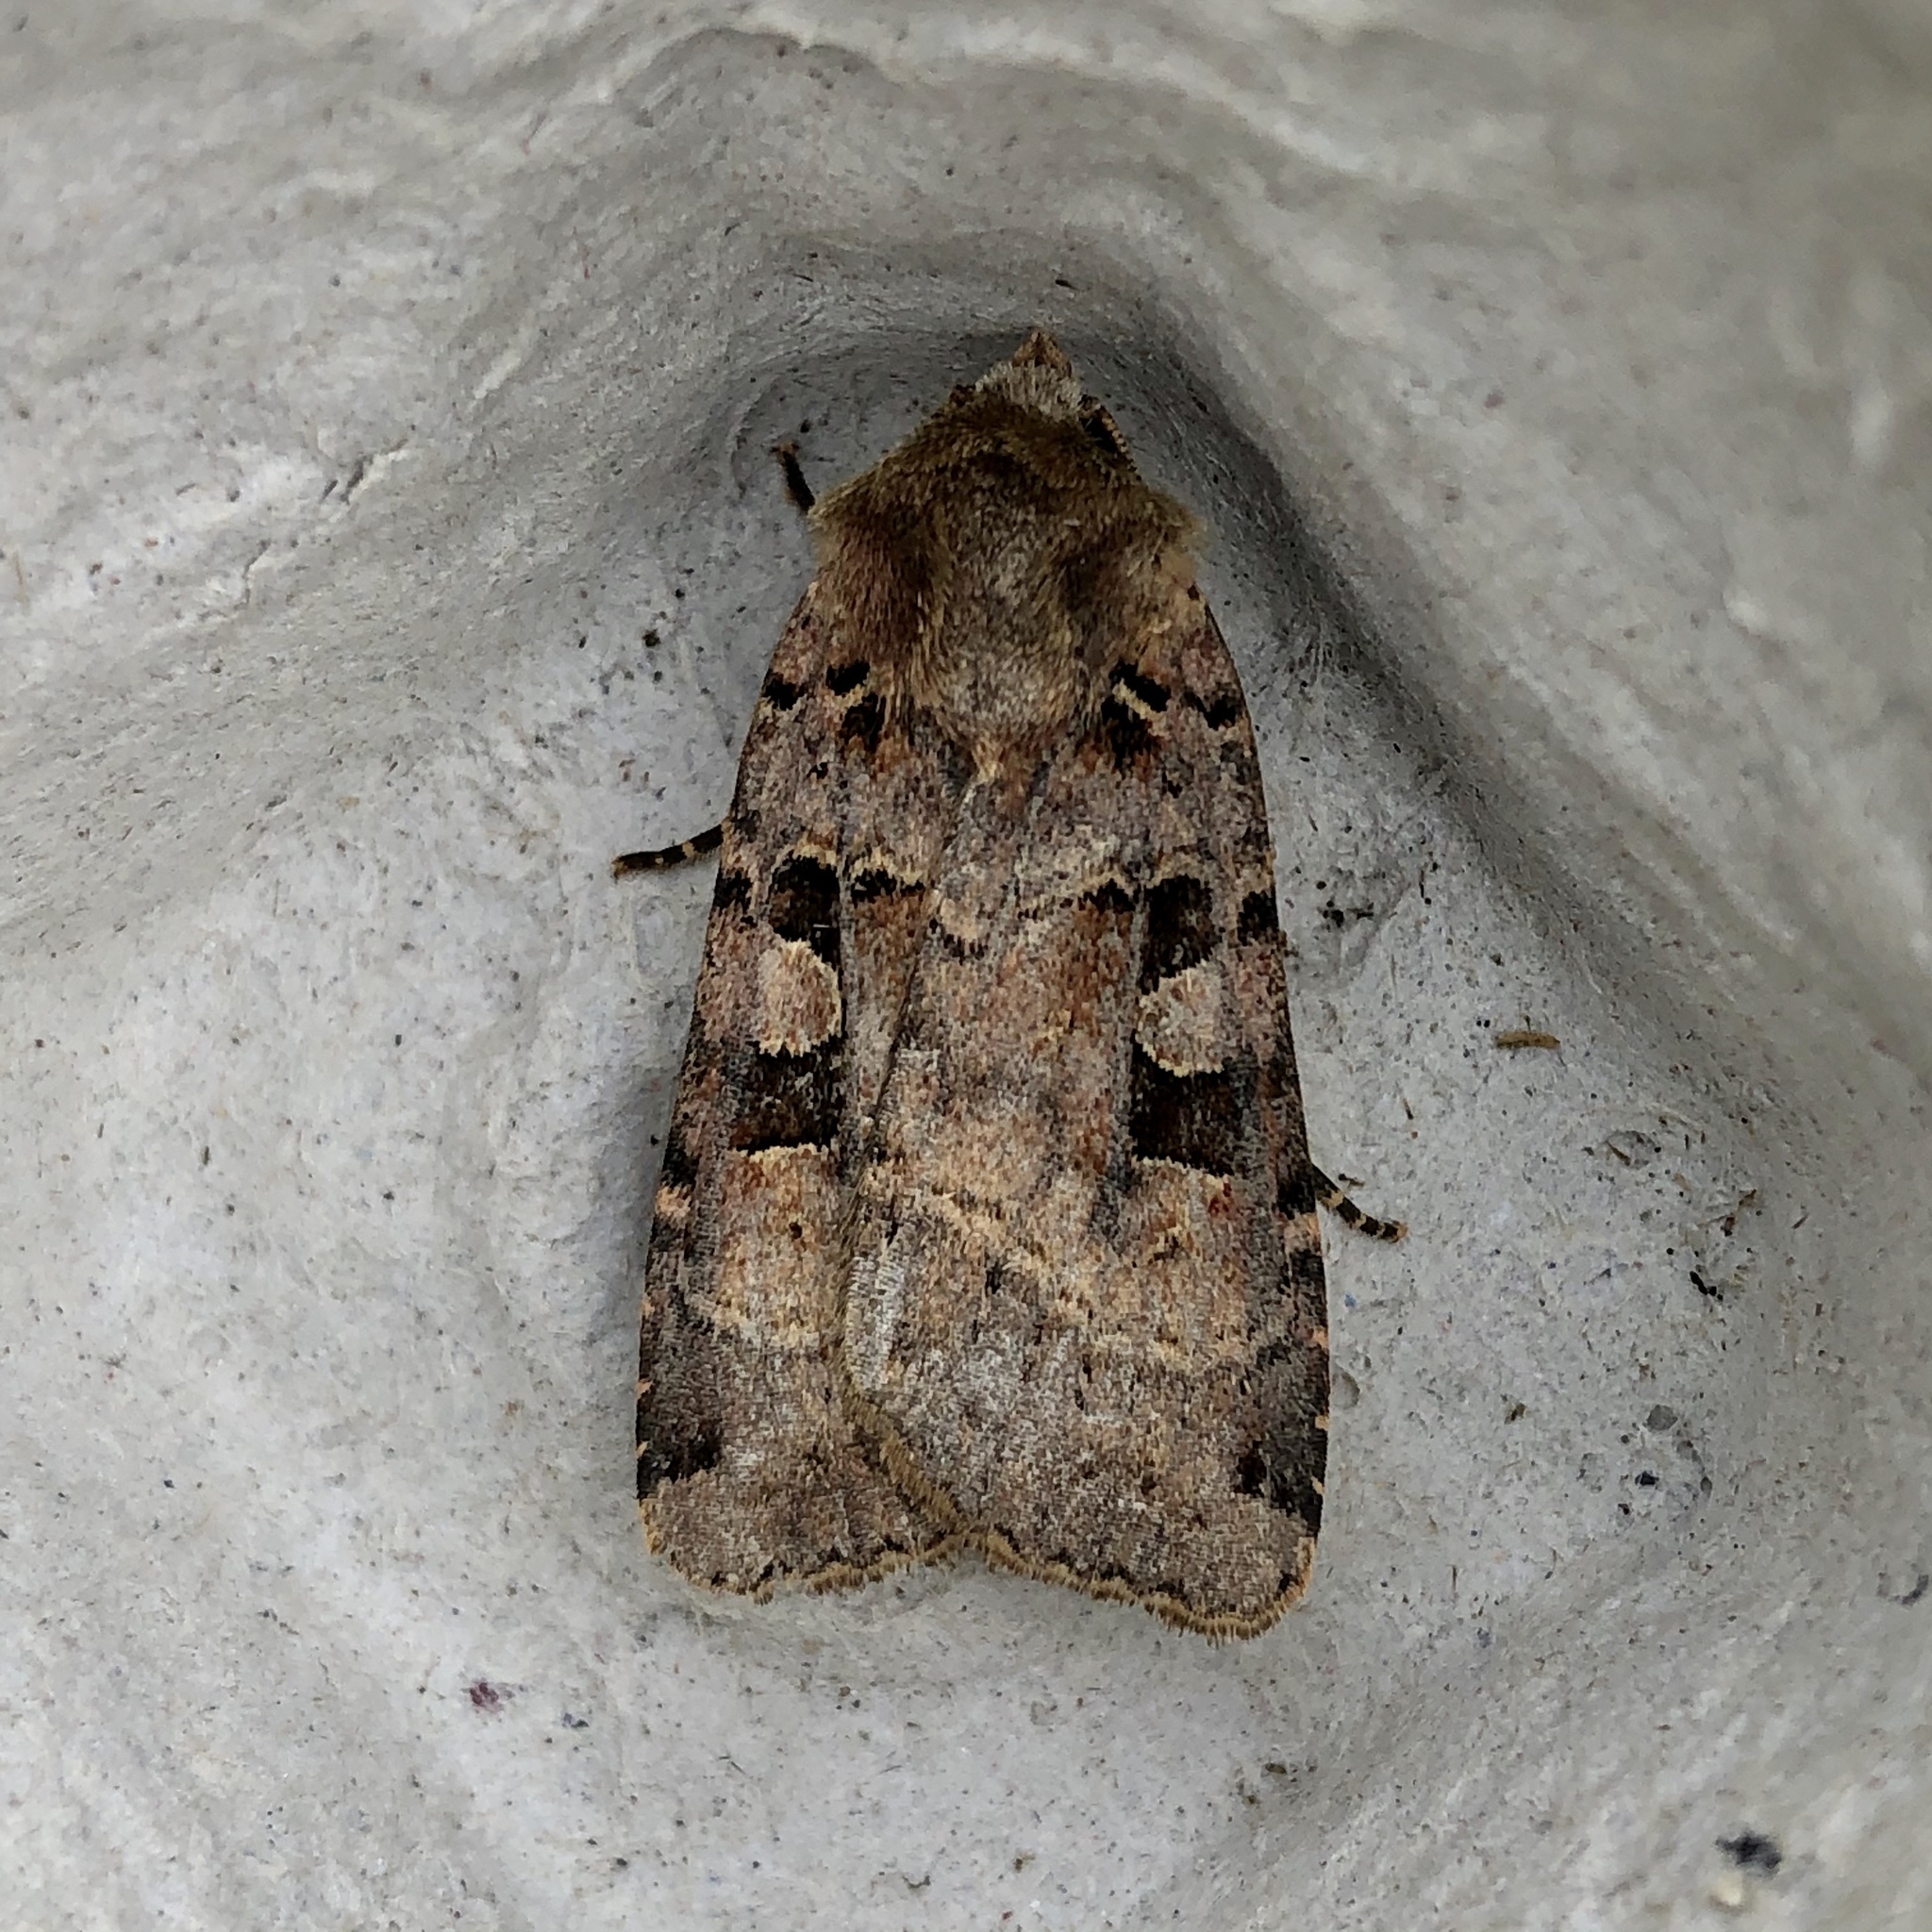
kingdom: Animalia
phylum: Arthropoda
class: Insecta
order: Lepidoptera
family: Noctuidae
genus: Xestia
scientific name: Xestia triangulum
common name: Double square-spot
